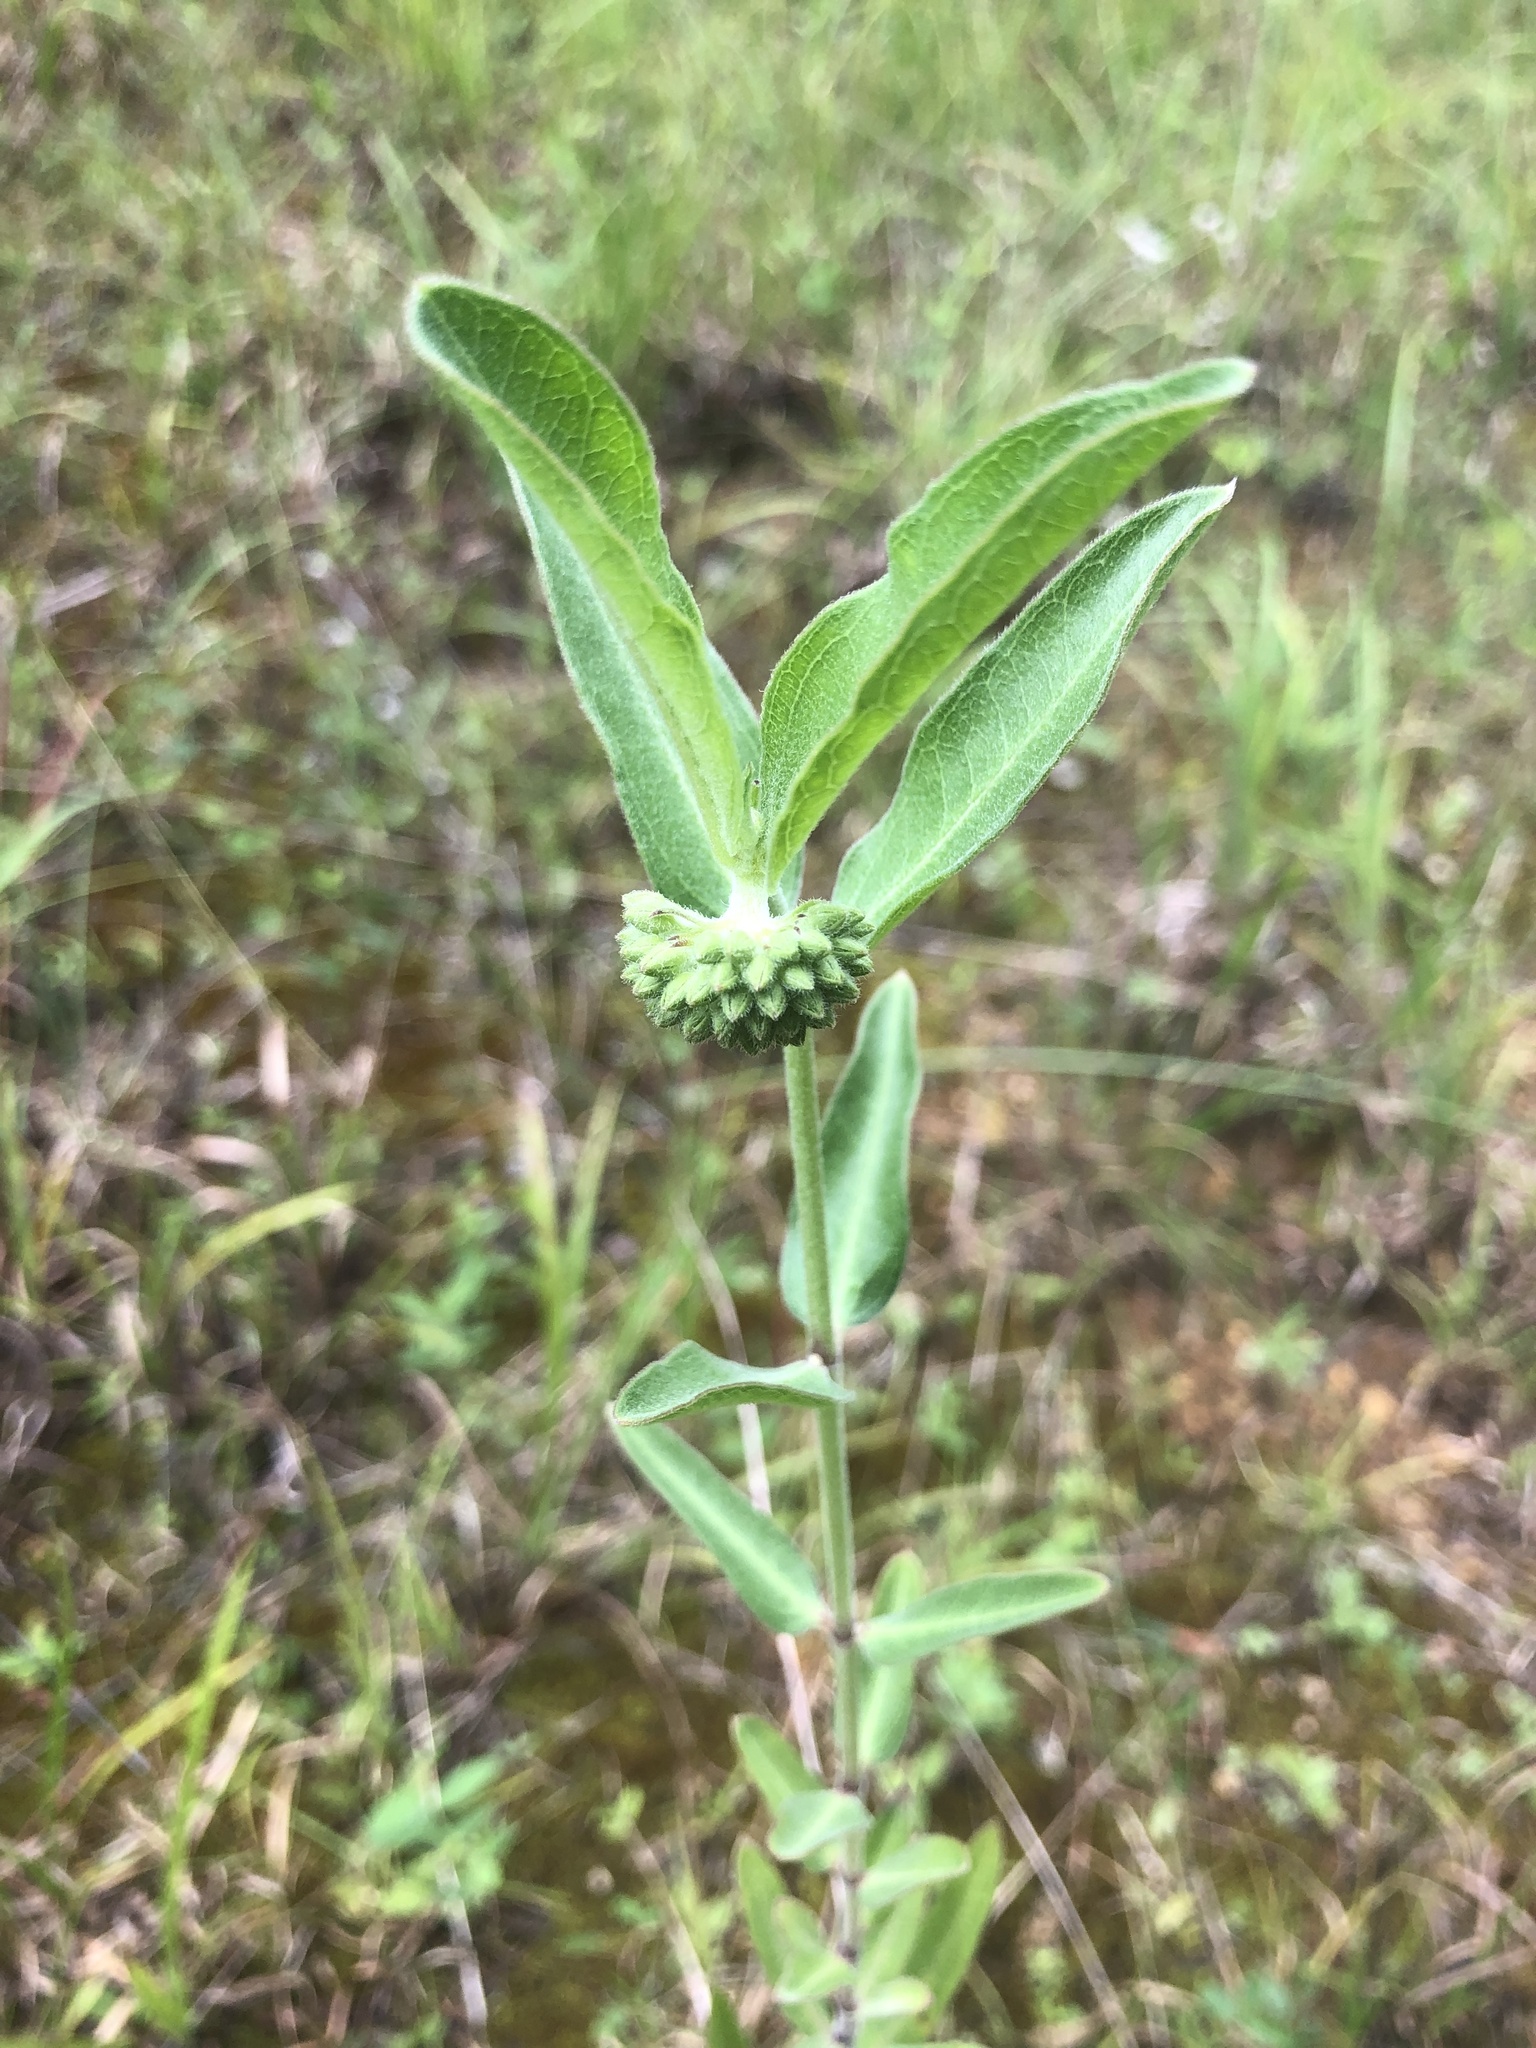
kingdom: Plantae
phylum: Tracheophyta
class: Magnoliopsida
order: Gentianales
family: Apocynaceae
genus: Asclepias
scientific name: Asclepias viridiflora
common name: Green comet milkweed
